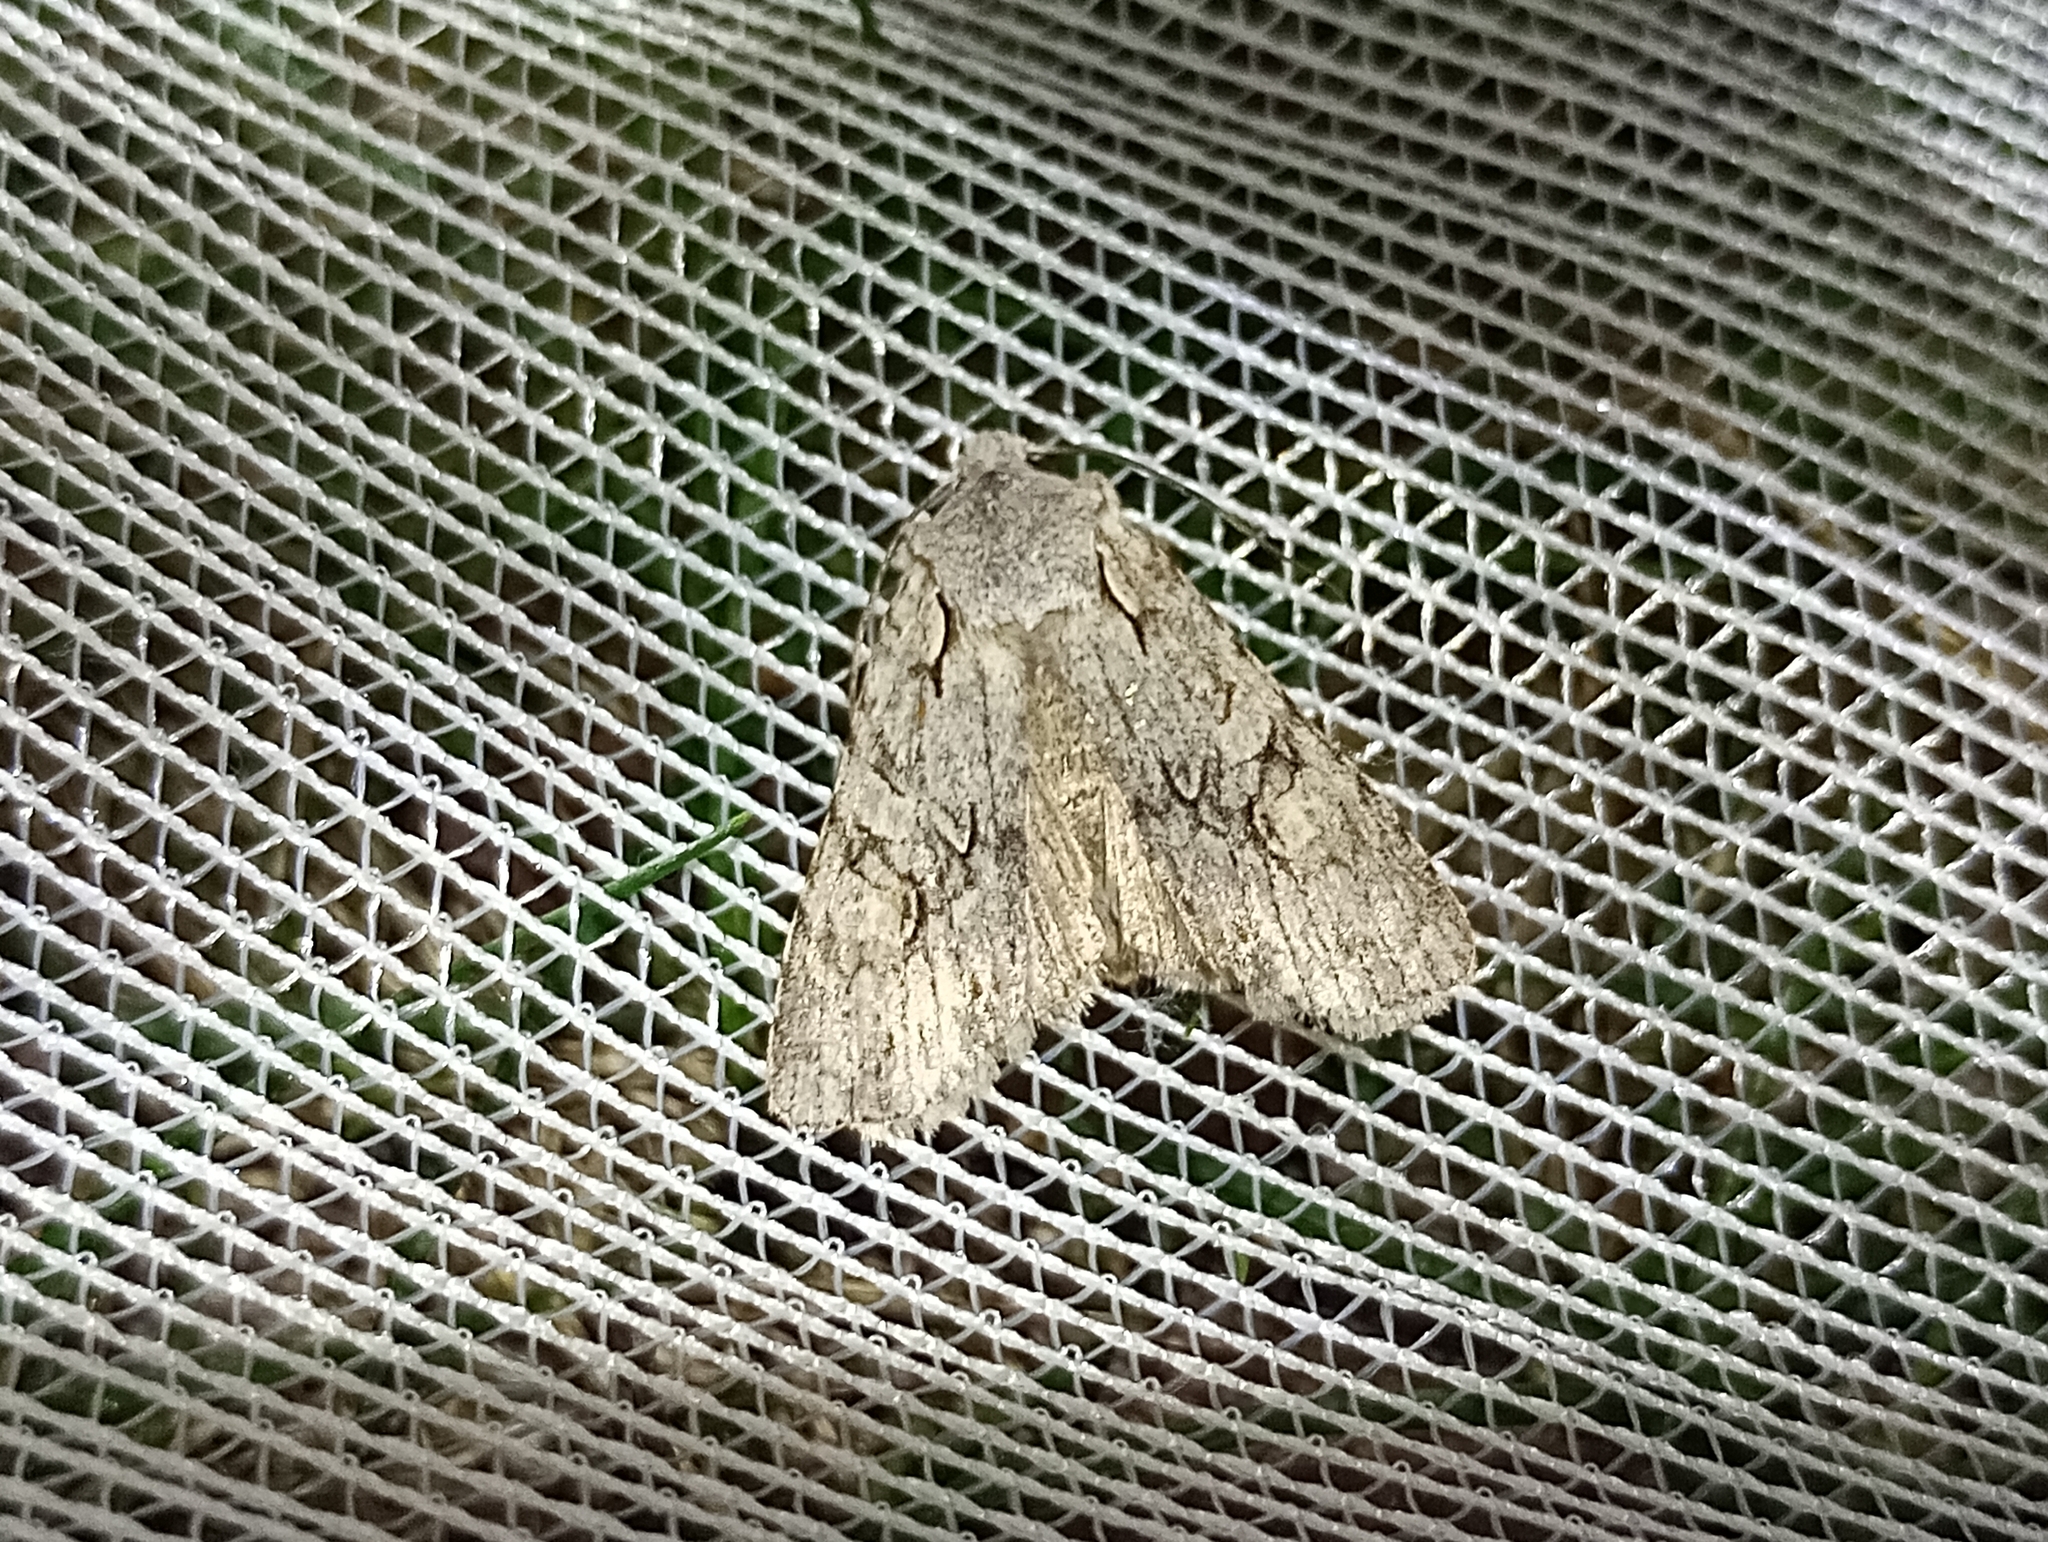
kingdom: Animalia
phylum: Arthropoda
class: Insecta
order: Lepidoptera
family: Noctuidae
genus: Lithophane
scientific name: Lithophane ornitopus
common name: Grey shoulder-knot
